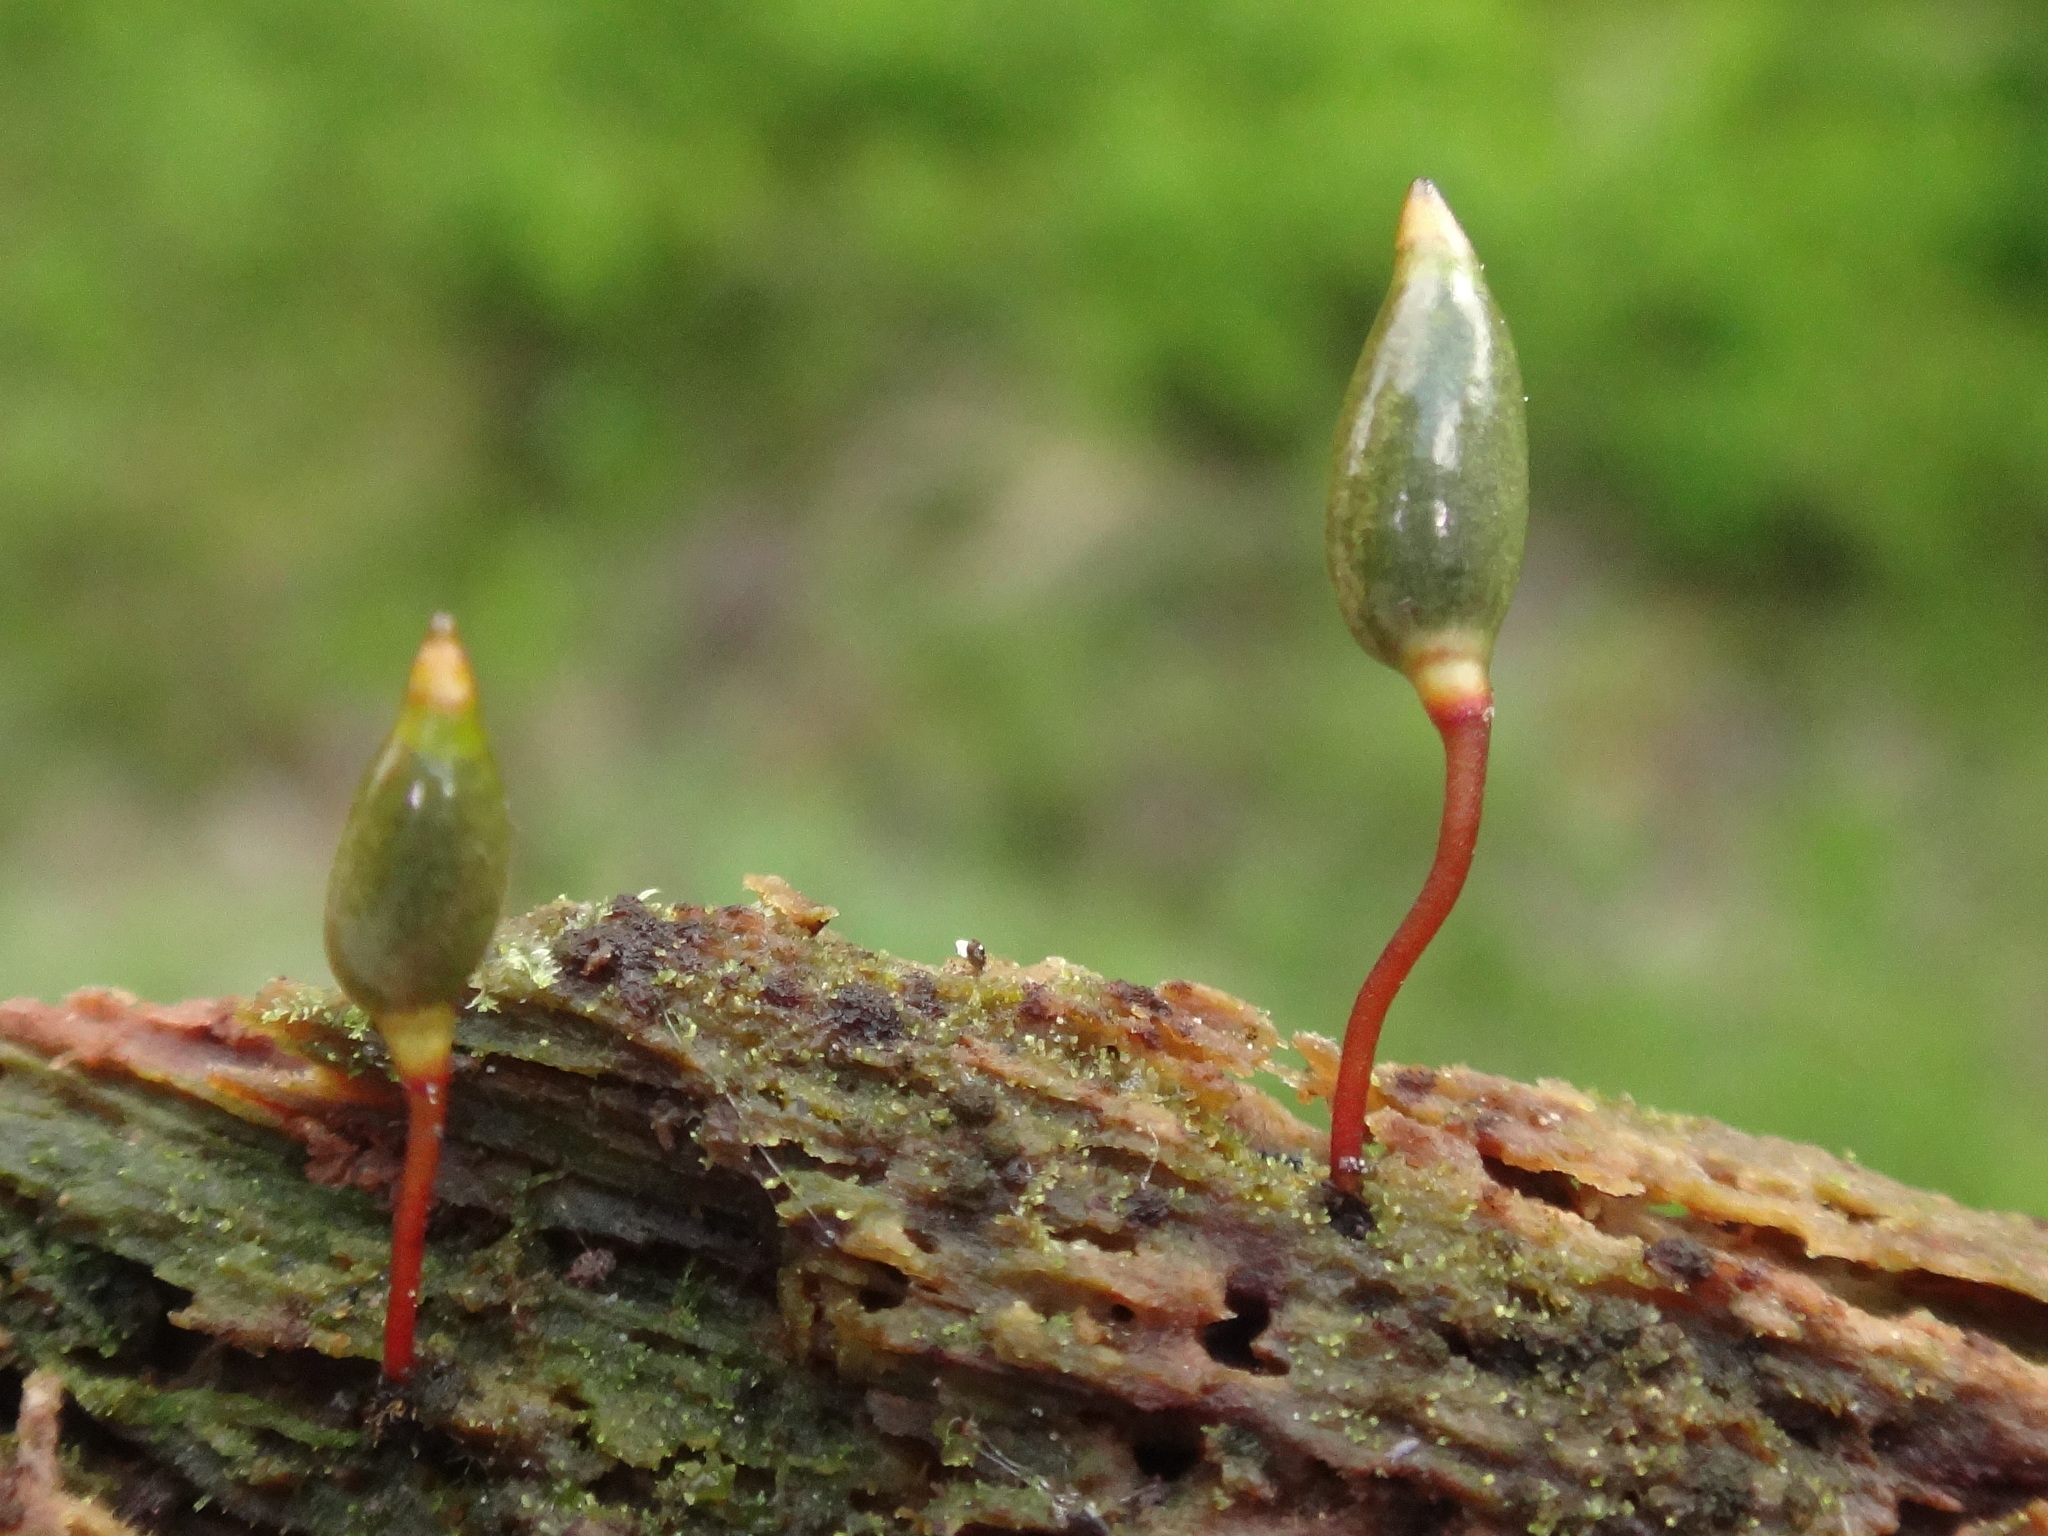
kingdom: Plantae
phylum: Bryophyta
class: Bryopsida
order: Buxbaumiales
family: Buxbaumiaceae
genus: Buxbaumia
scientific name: Buxbaumia viridis
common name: Green shield-moss
